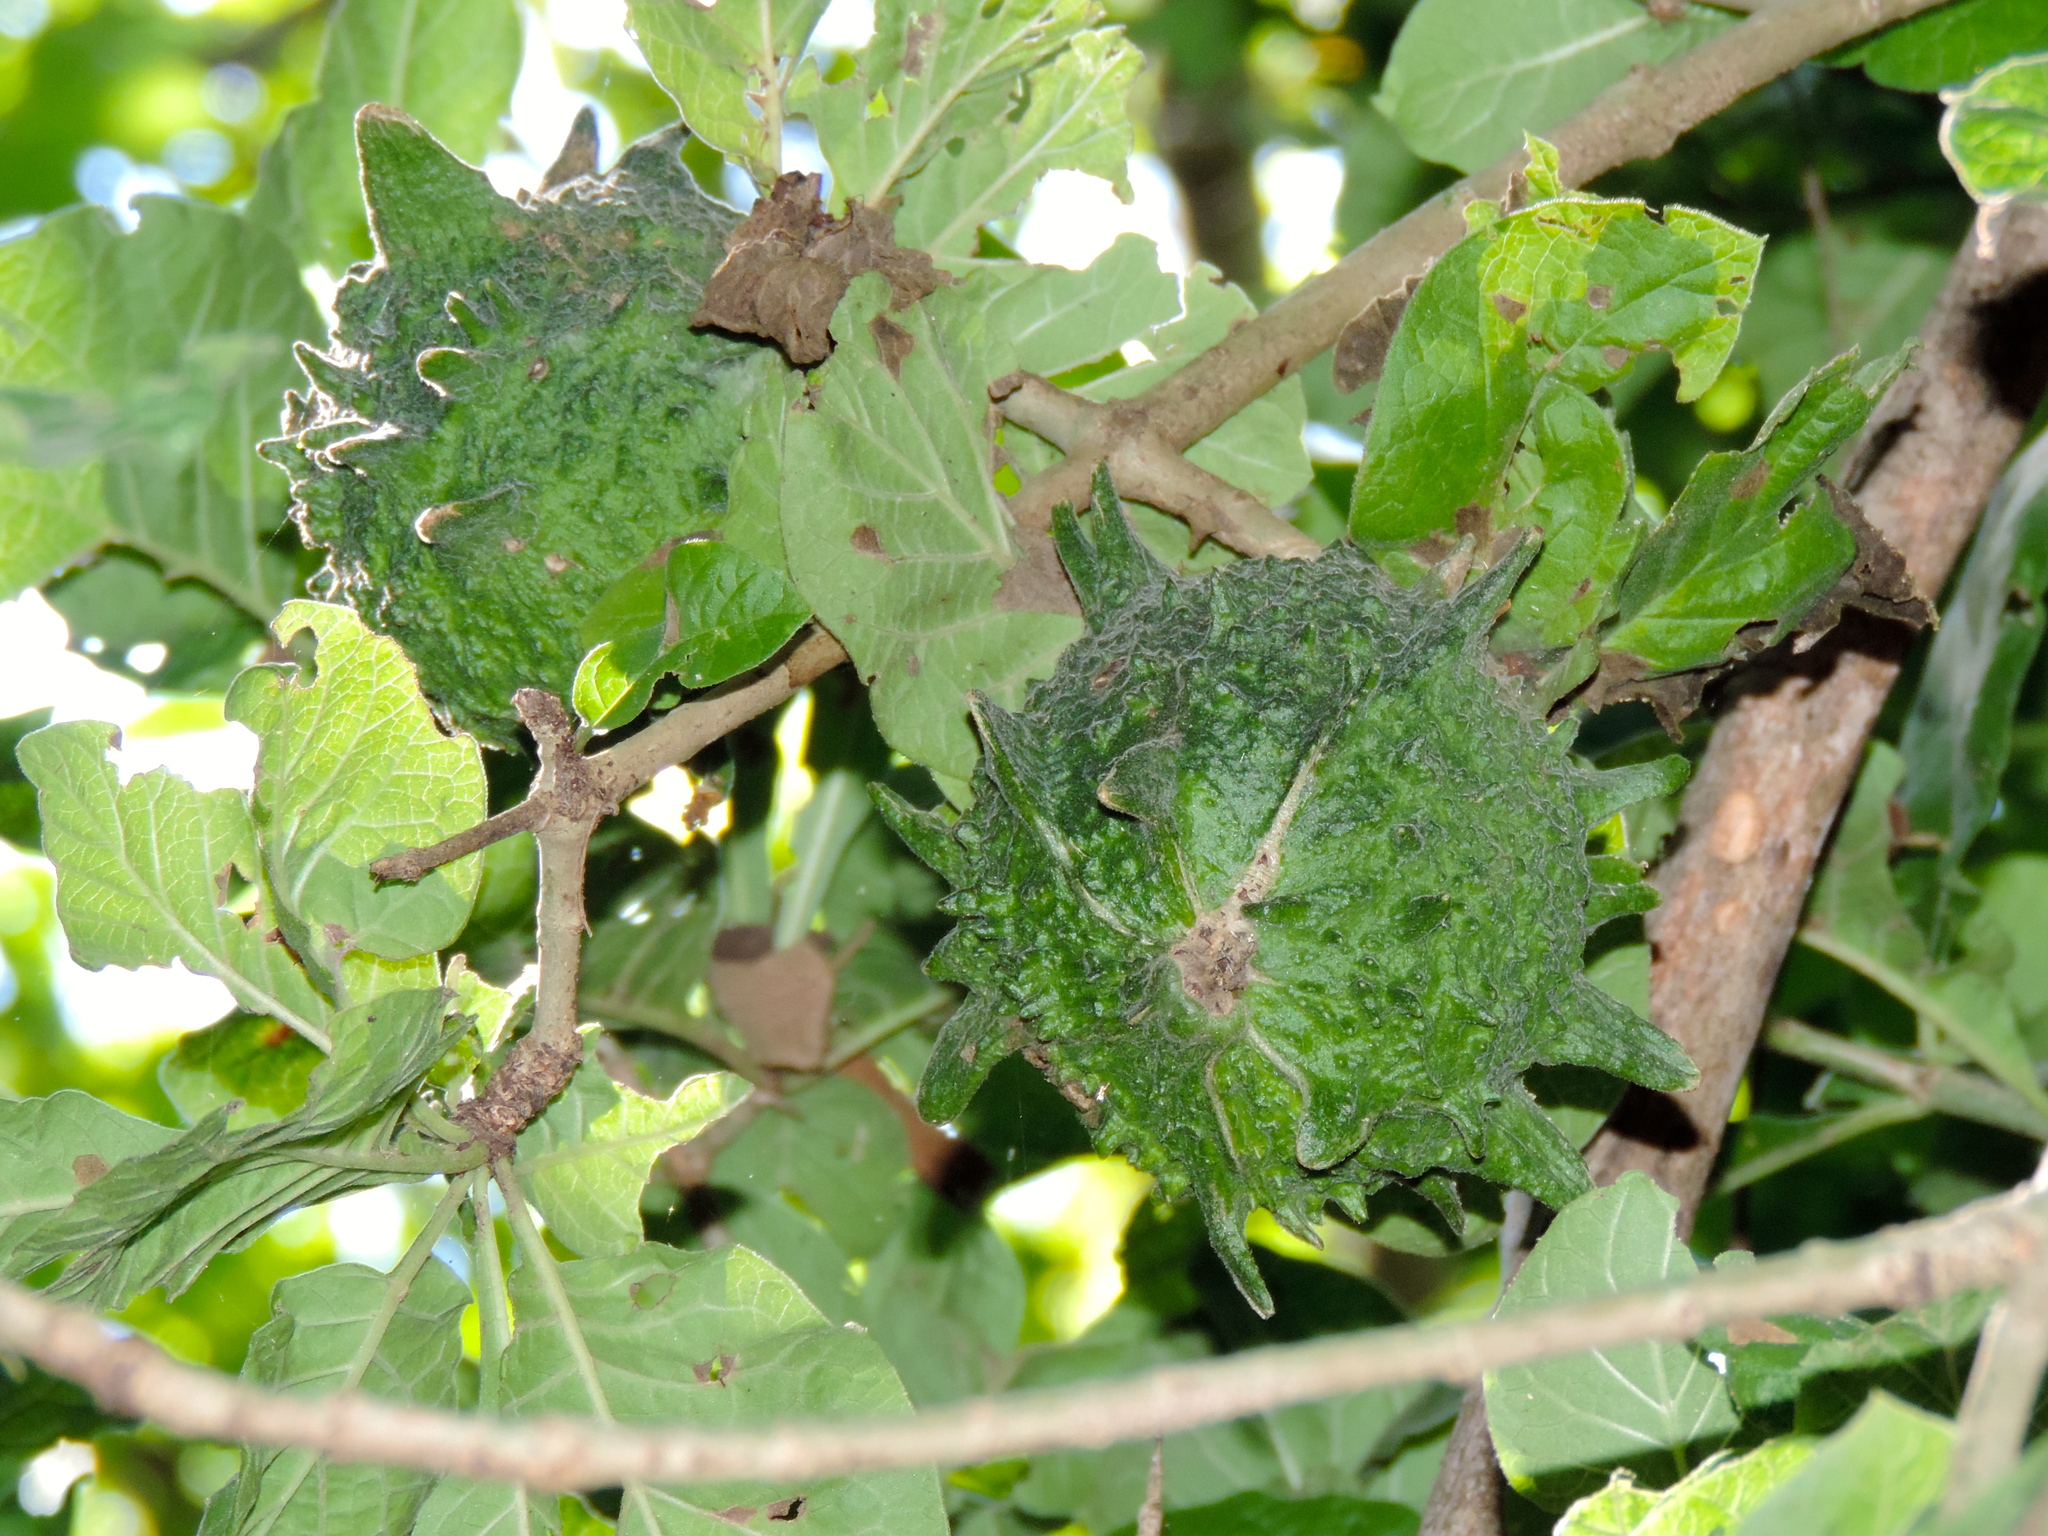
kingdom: Plantae
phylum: Tracheophyta
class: Magnoliopsida
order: Gentianales
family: Rubiaceae
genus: Randia
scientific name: Randia echinocarpa
